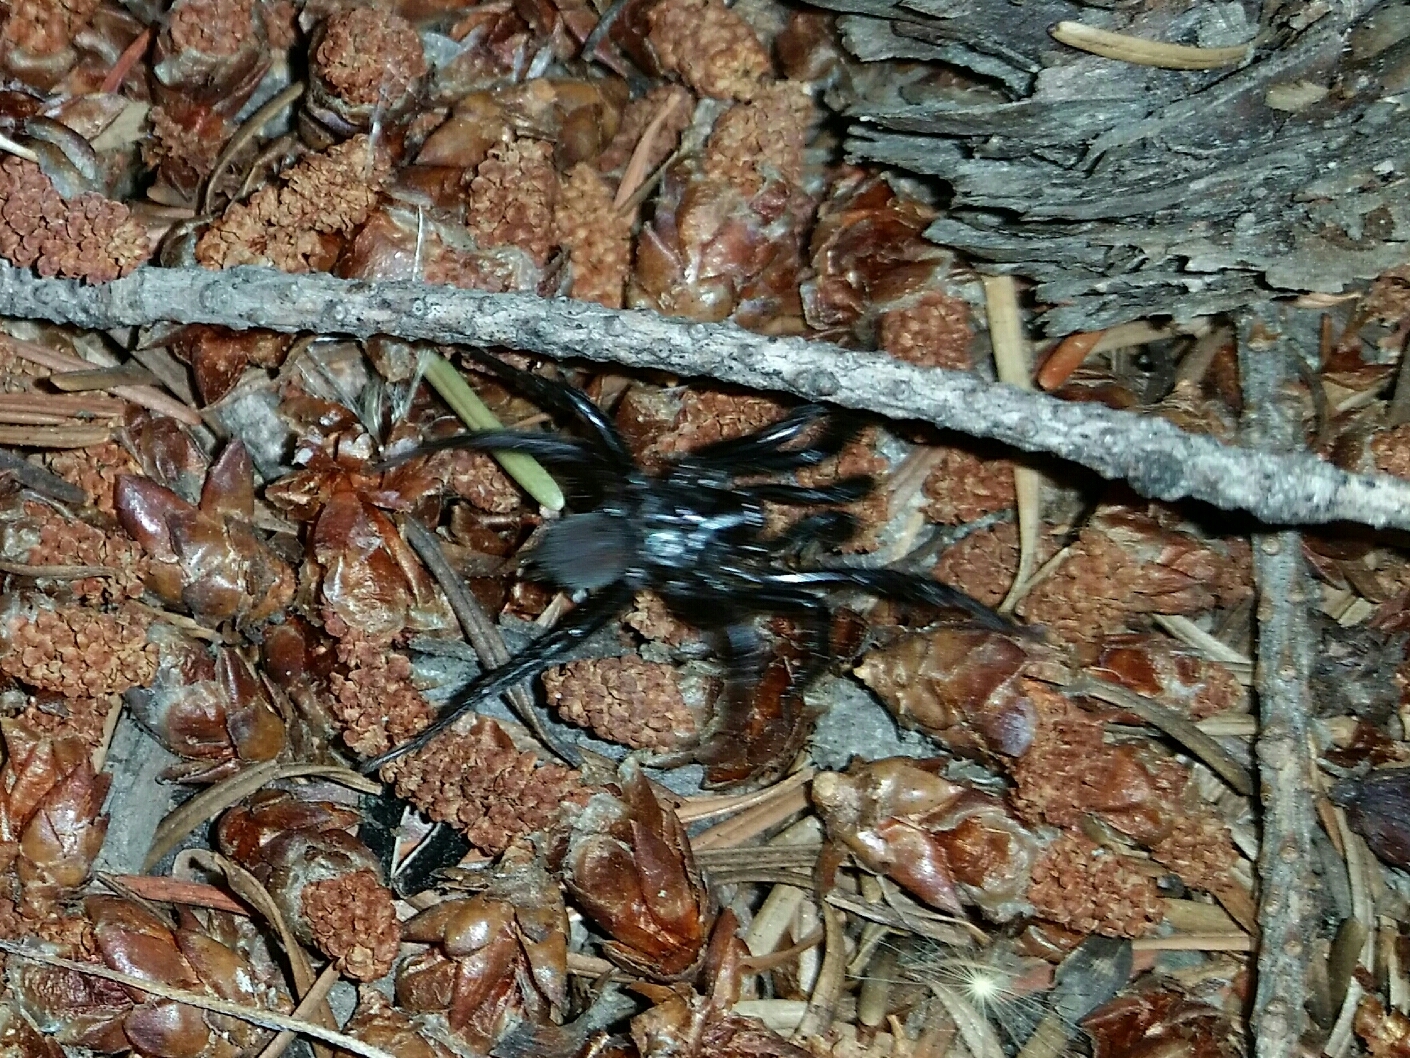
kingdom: Animalia
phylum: Arthropoda
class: Arachnida
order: Araneae
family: Antrodiaetidae
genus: Antrodiaetus
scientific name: Antrodiaetus pacificus
